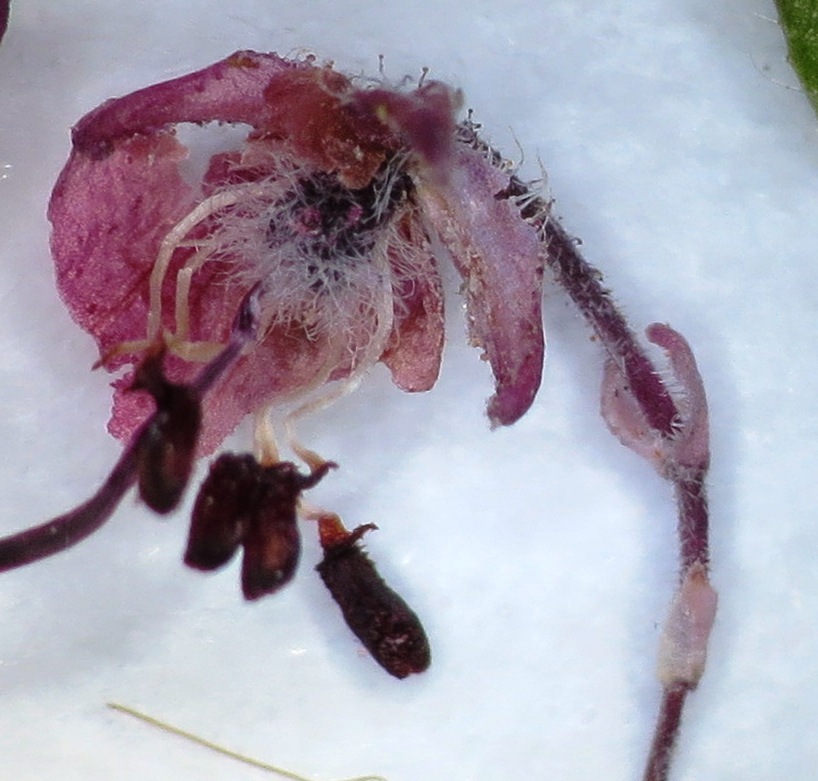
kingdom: Plantae
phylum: Tracheophyta
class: Magnoliopsida
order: Ericales
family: Ericaceae
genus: Erica
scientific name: Erica grata
